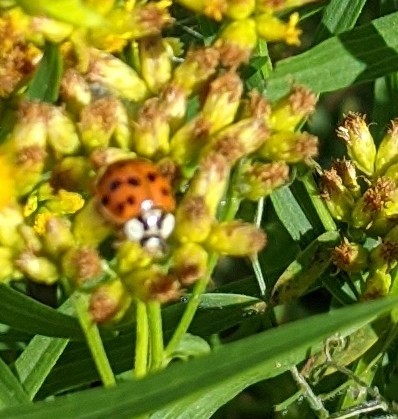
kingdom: Animalia
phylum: Arthropoda
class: Insecta
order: Coleoptera
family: Coccinellidae
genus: Harmonia
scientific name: Harmonia axyridis
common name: Harlequin ladybird
